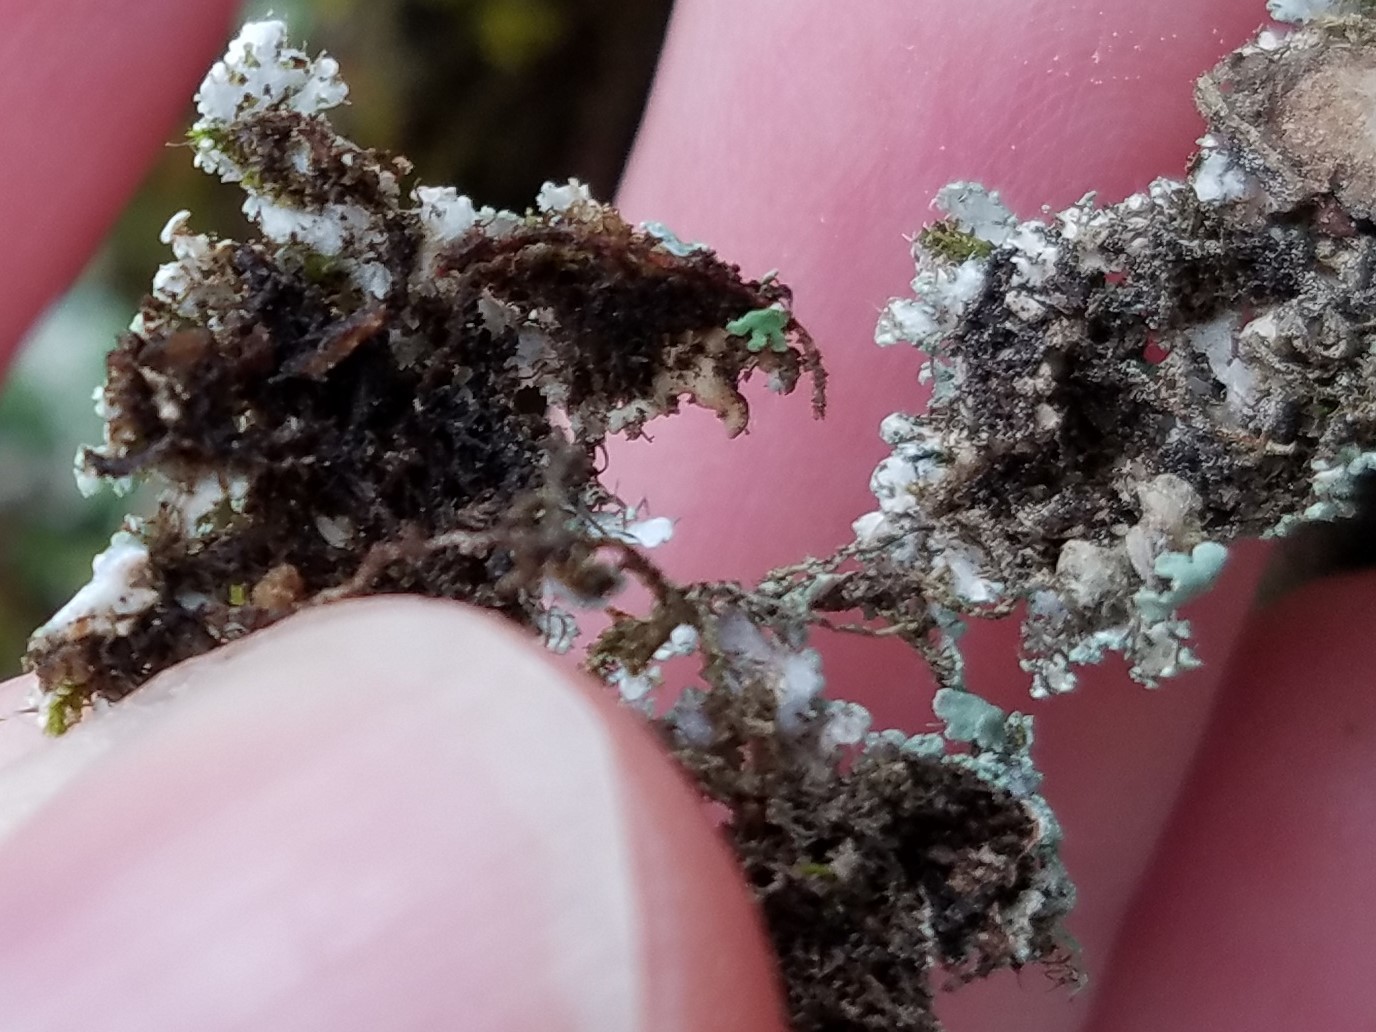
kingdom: Fungi
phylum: Ascomycota
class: Lecanoromycetes
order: Caliciales
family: Physciaceae
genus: Polyblastidium
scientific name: Polyblastidium albicans
